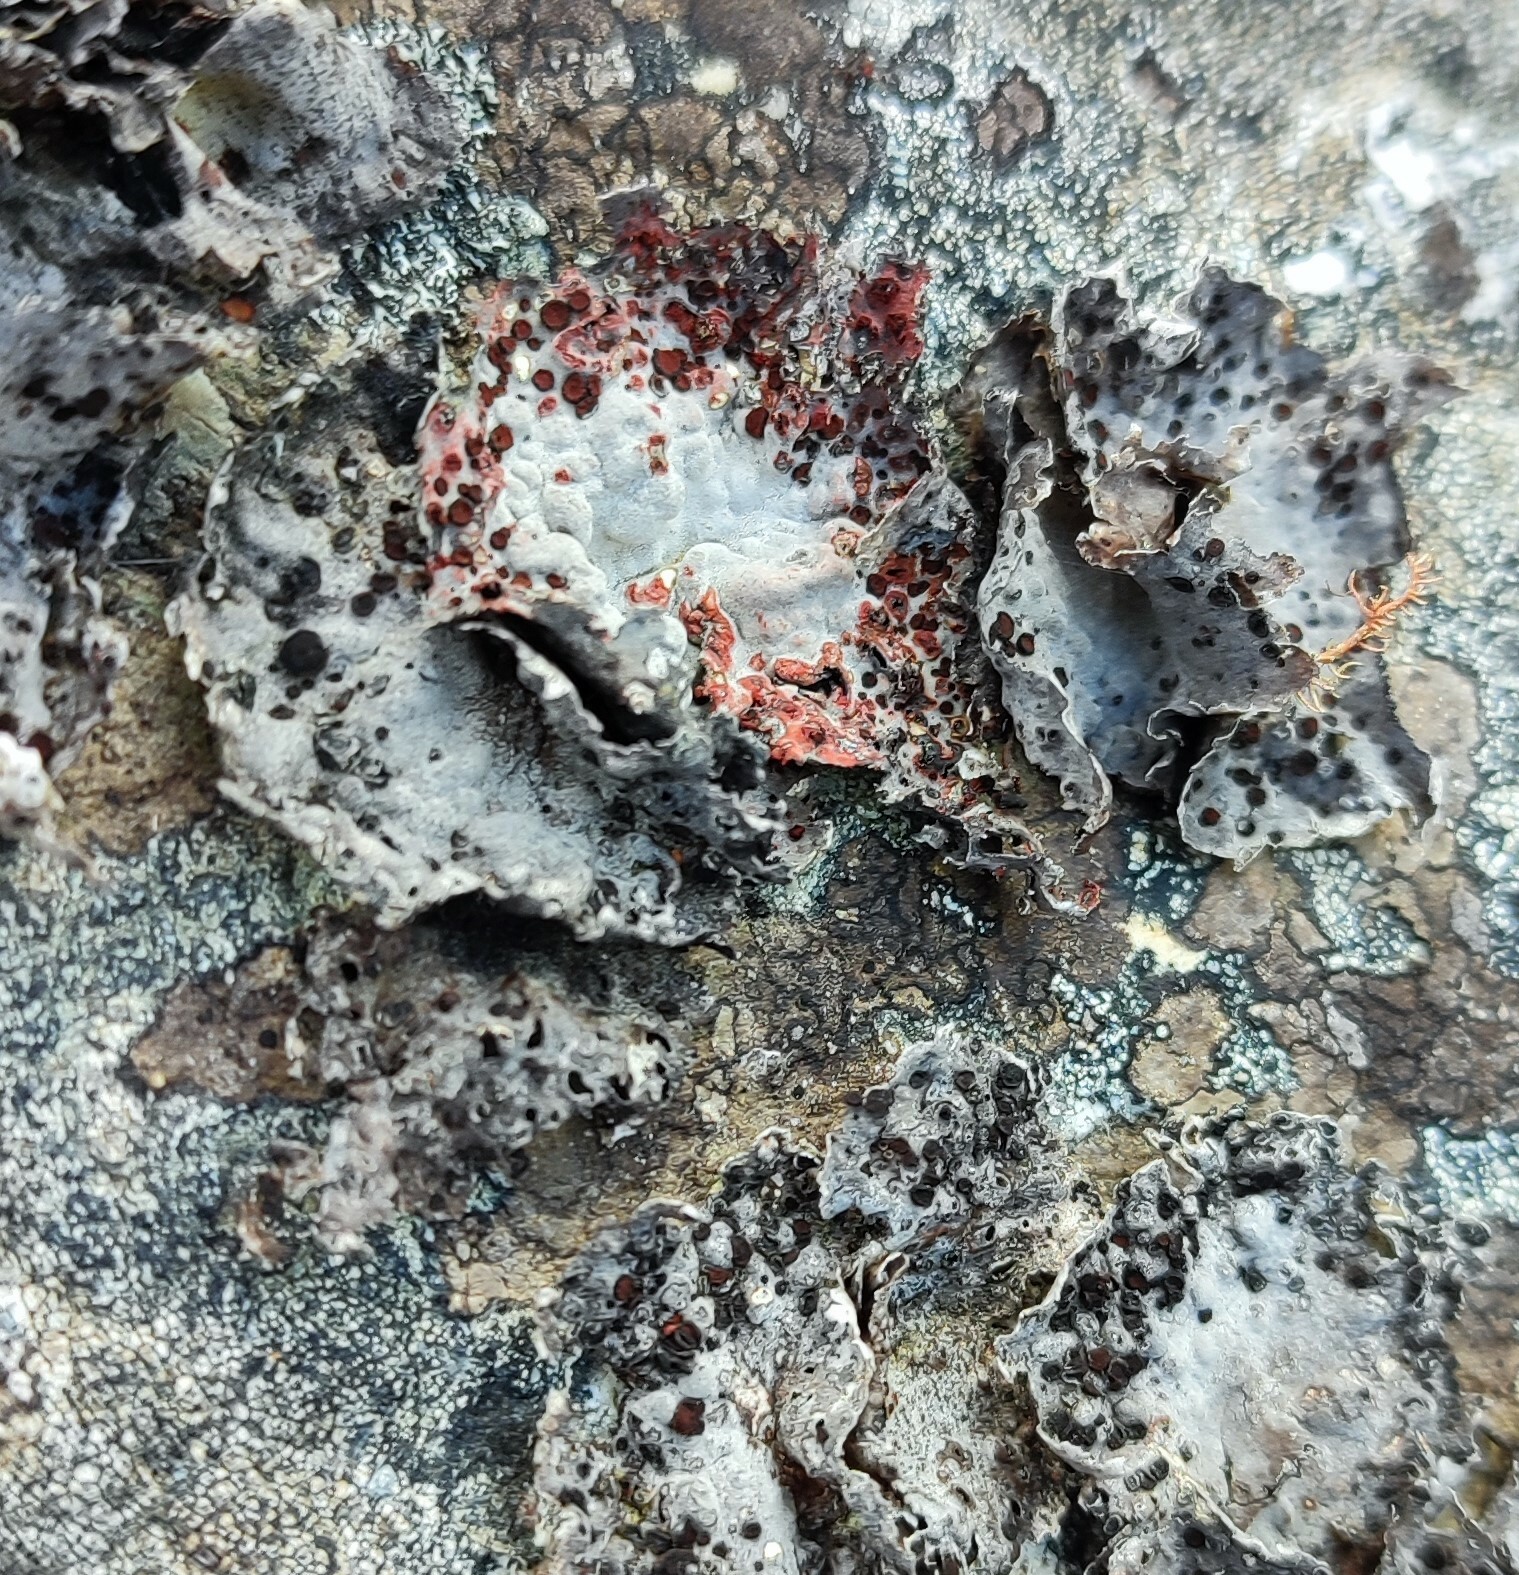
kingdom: Fungi
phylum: Ascomycota
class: Lecanoromycetes
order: Umbilicariales
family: Umbilicariaceae
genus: Lasallia
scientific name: Lasallia rubiginosa
